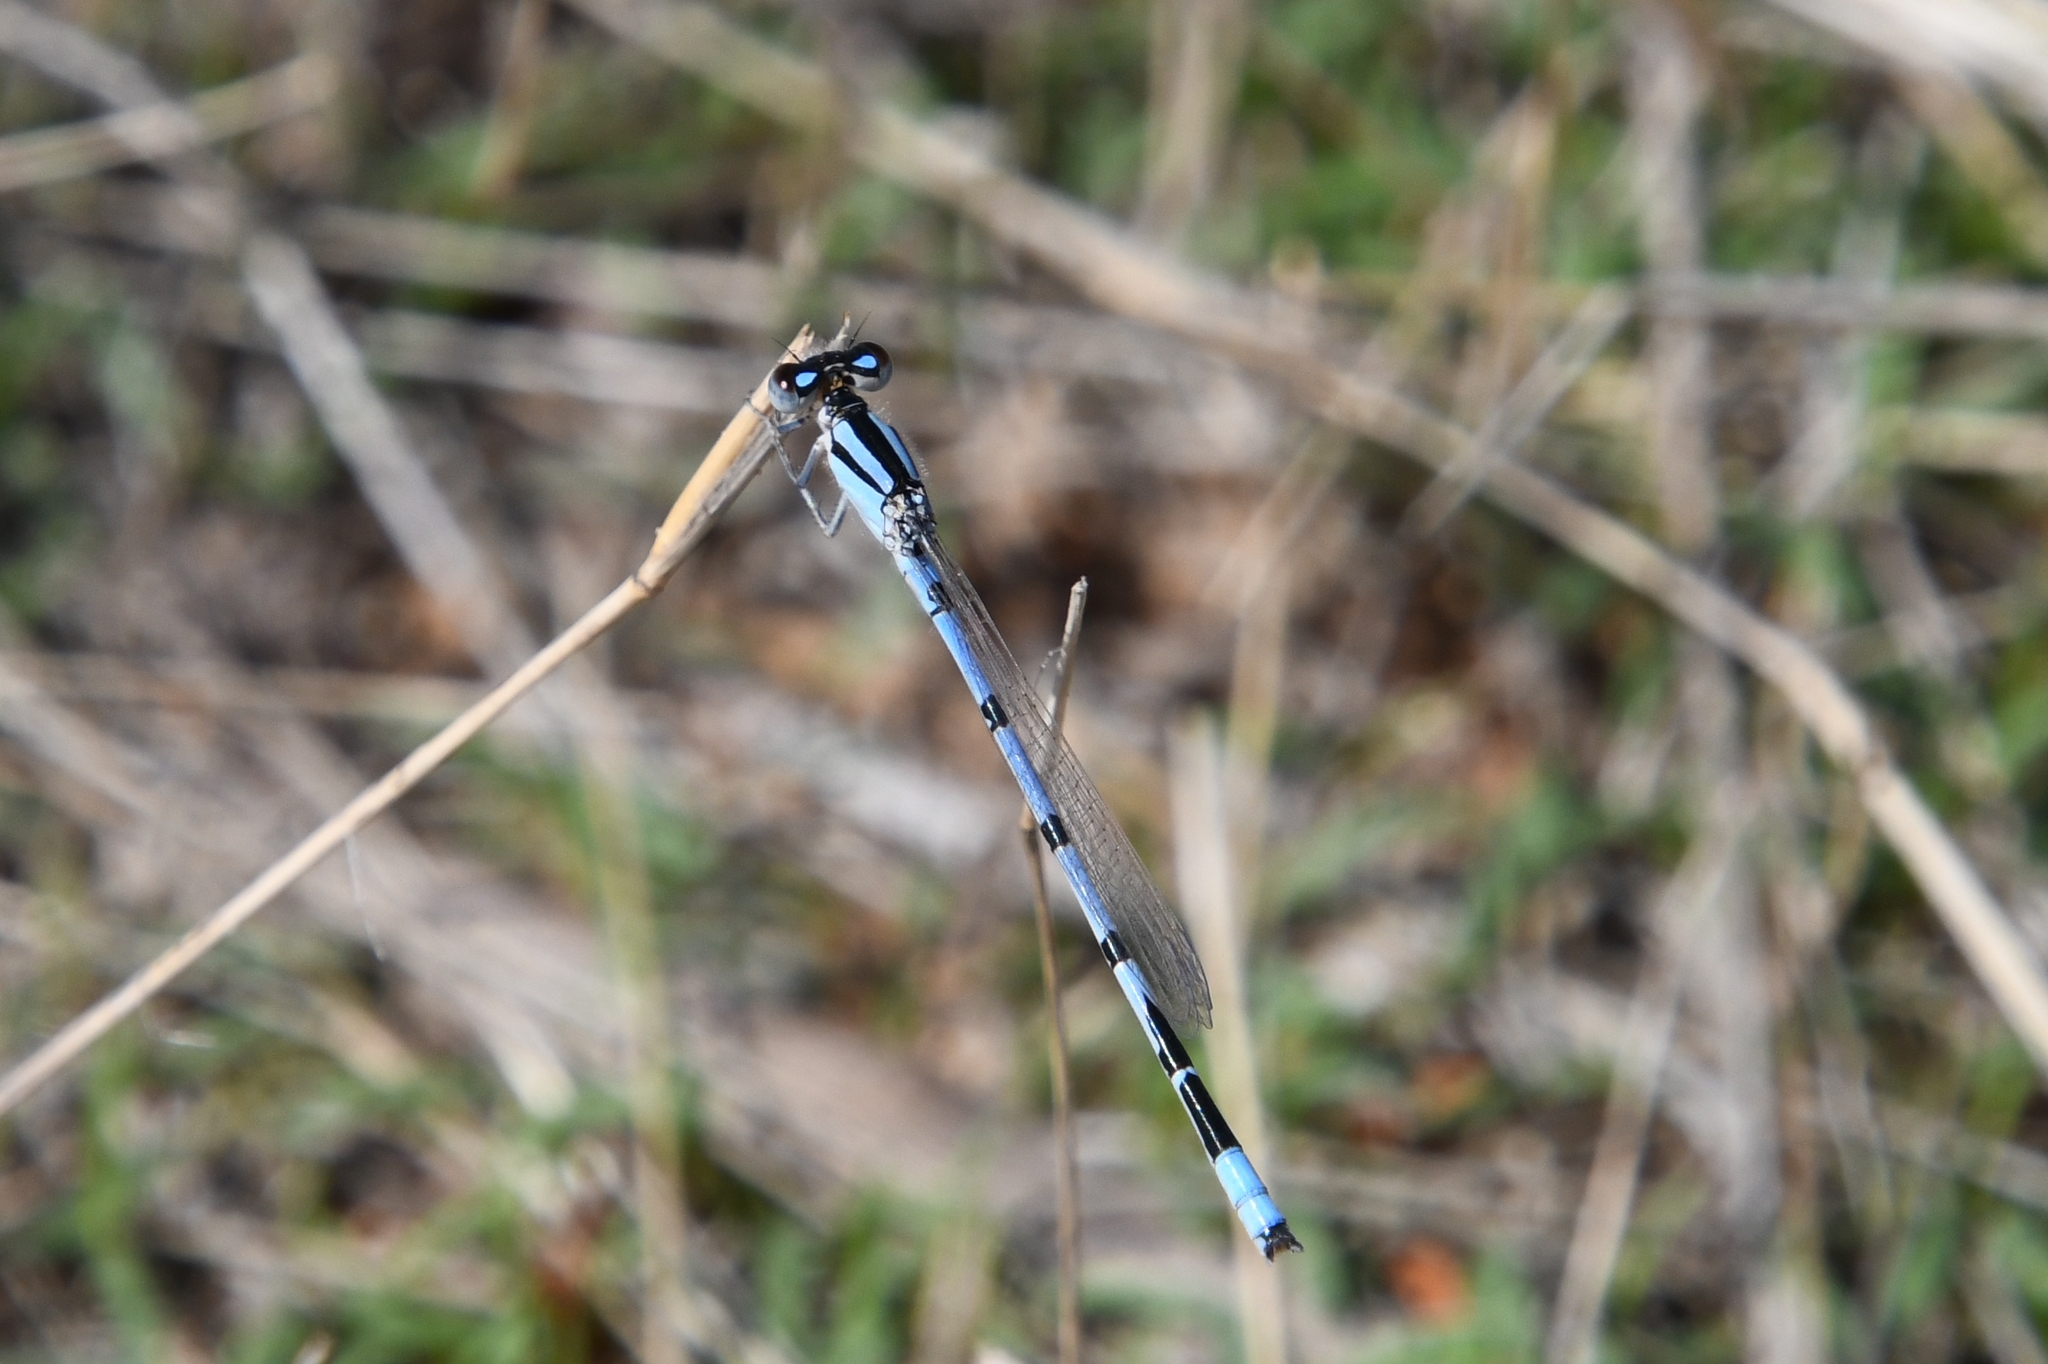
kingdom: Animalia
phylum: Arthropoda
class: Insecta
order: Odonata
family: Coenagrionidae
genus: Enallagma
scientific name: Enallagma civile
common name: Damselfly
